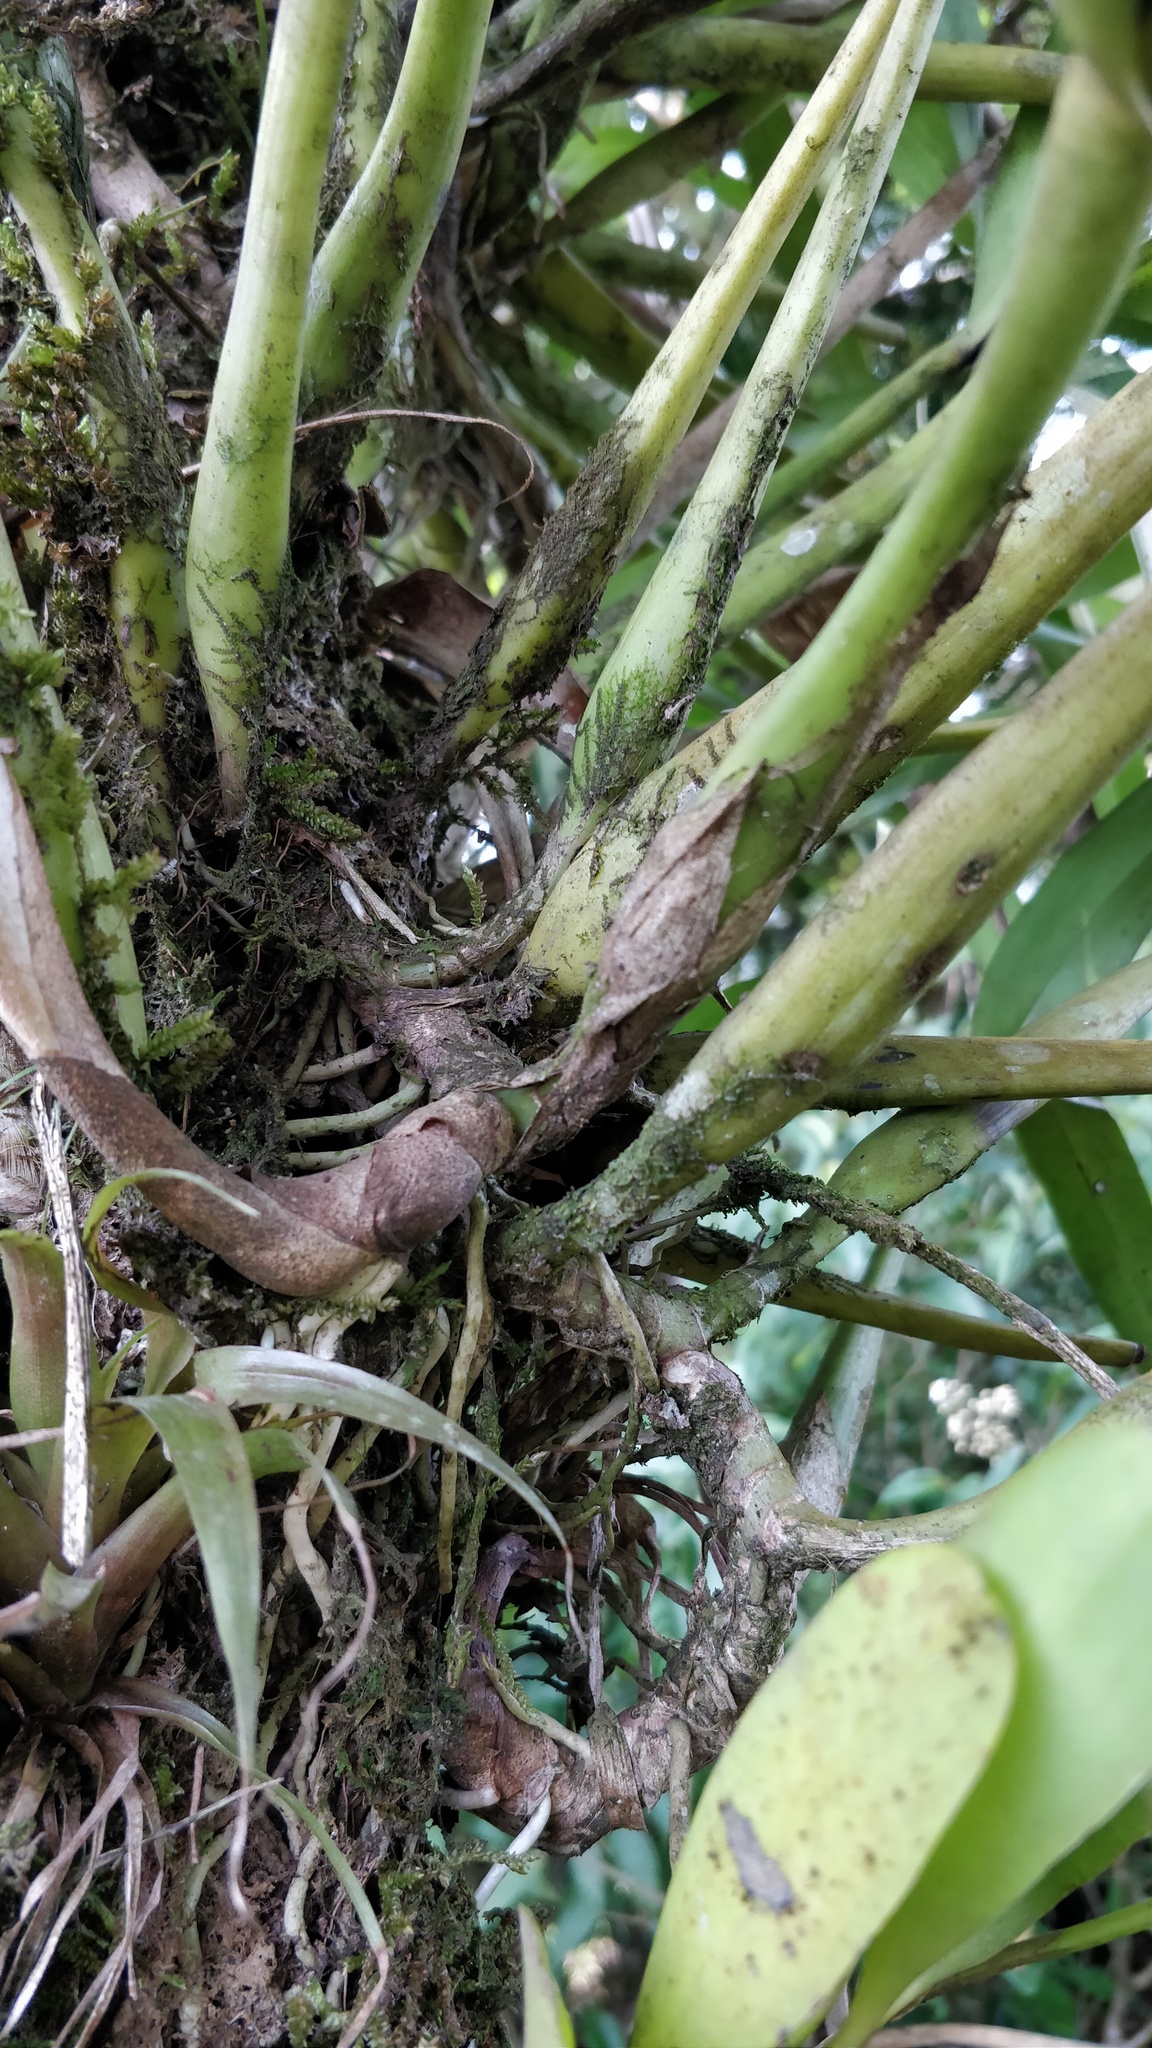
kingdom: Plantae
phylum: Tracheophyta
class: Liliopsida
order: Asparagales
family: Orchidaceae
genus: Prosthechea
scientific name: Prosthechea baculus
